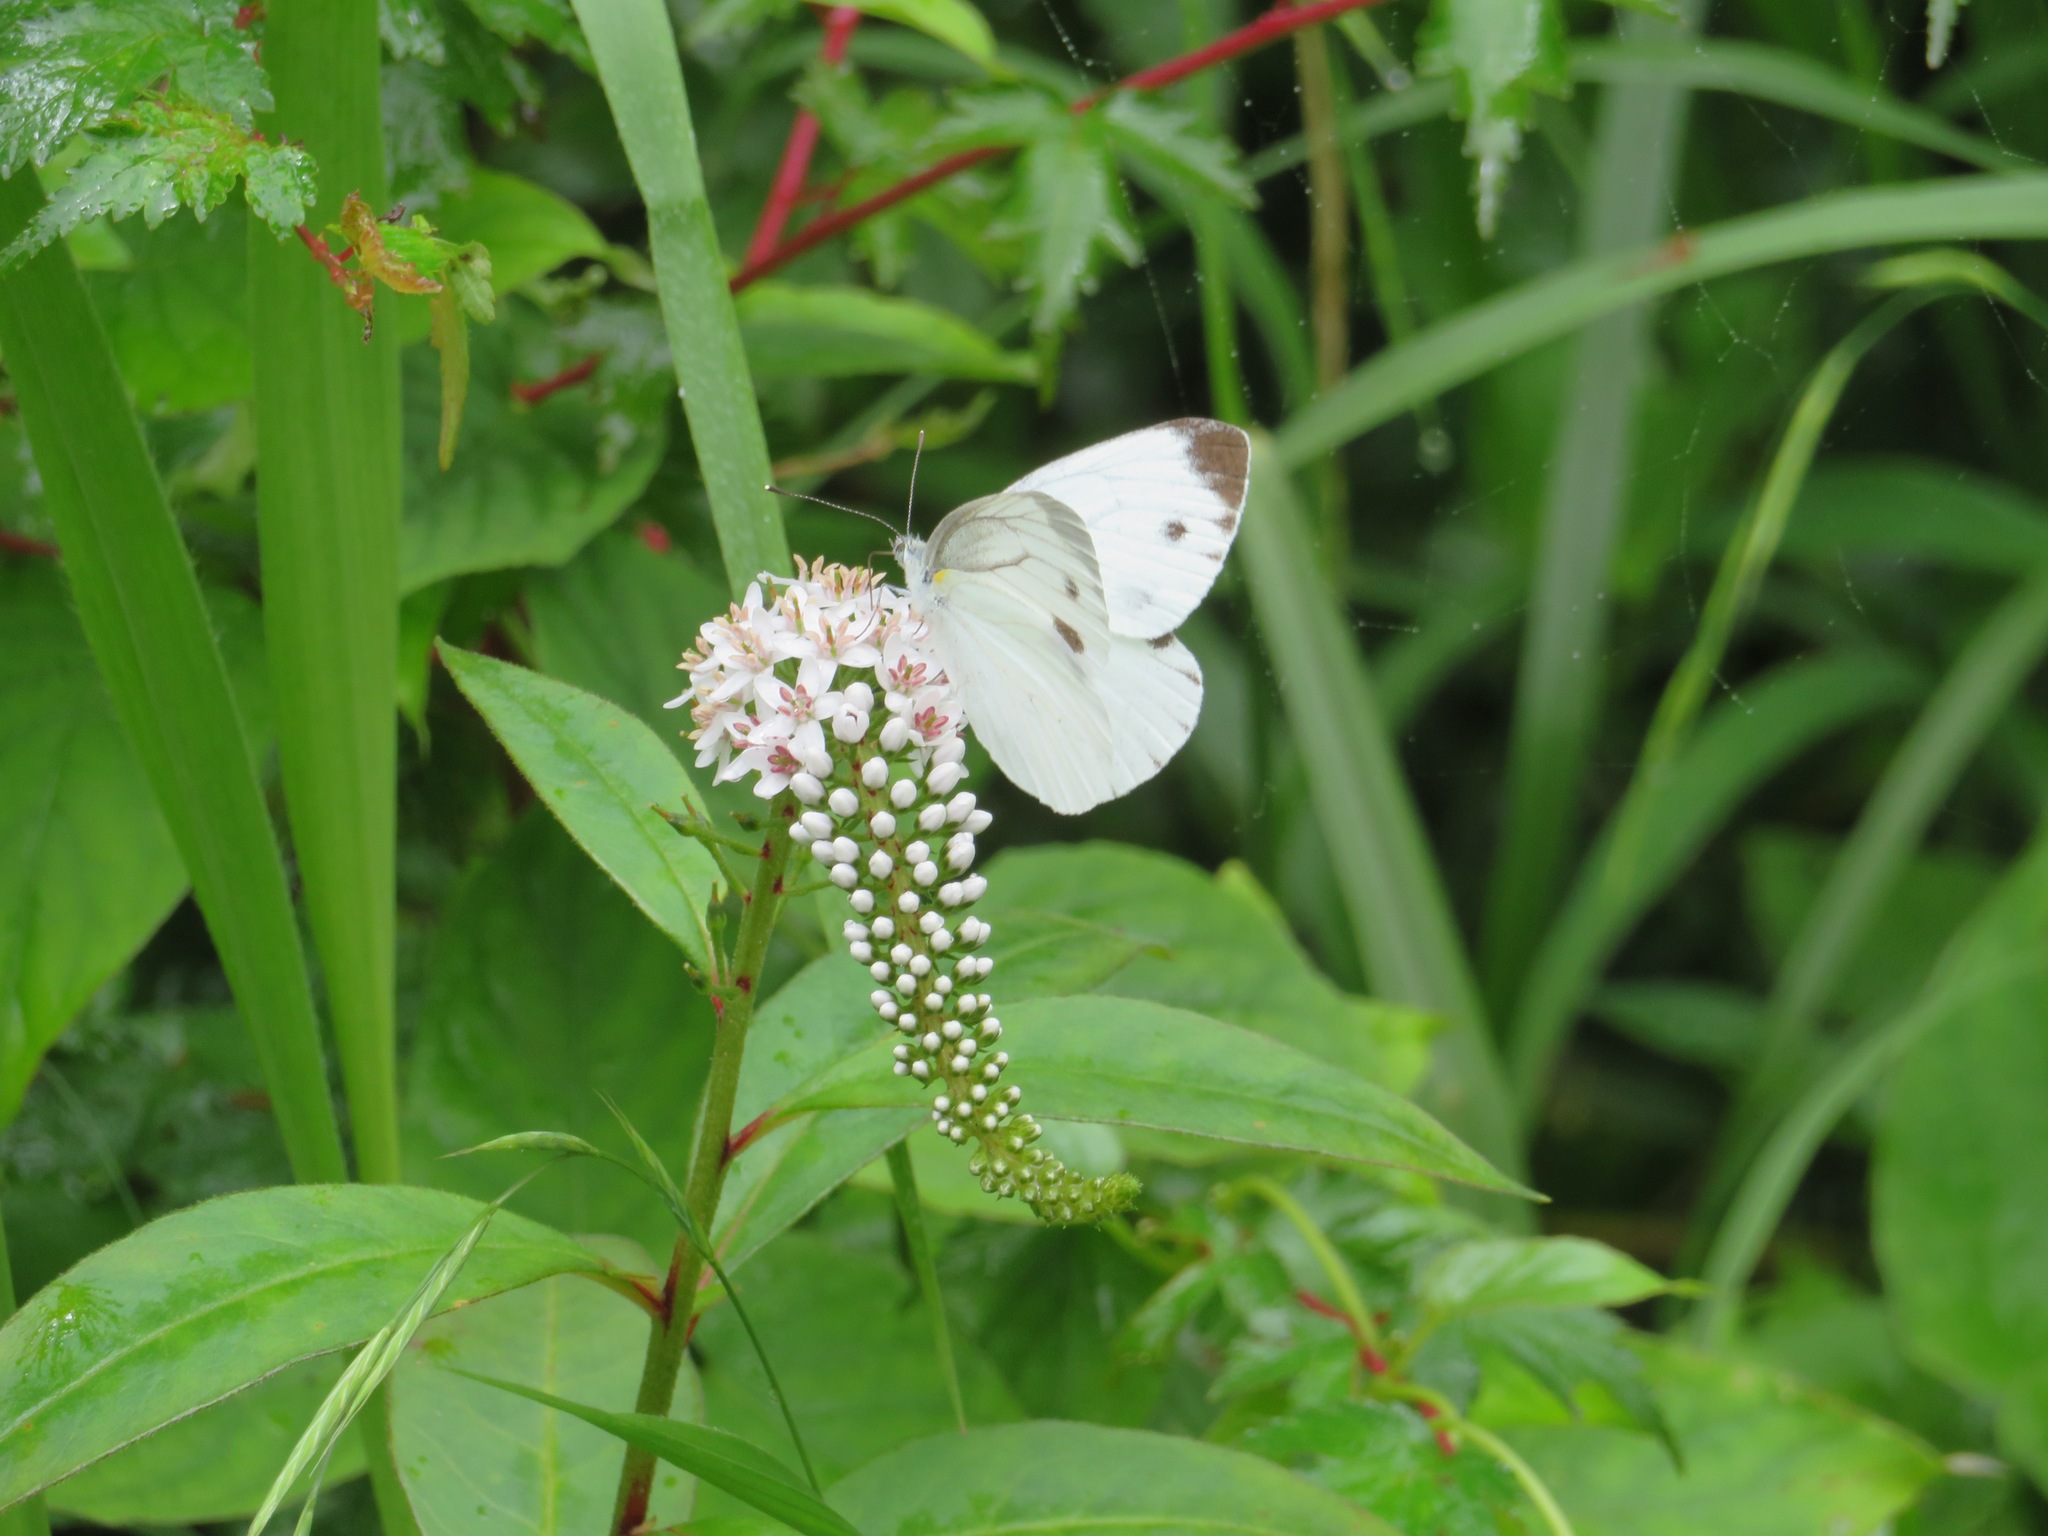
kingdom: Animalia
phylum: Arthropoda
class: Insecta
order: Lepidoptera
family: Pieridae
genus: Pieris
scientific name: Pieris
